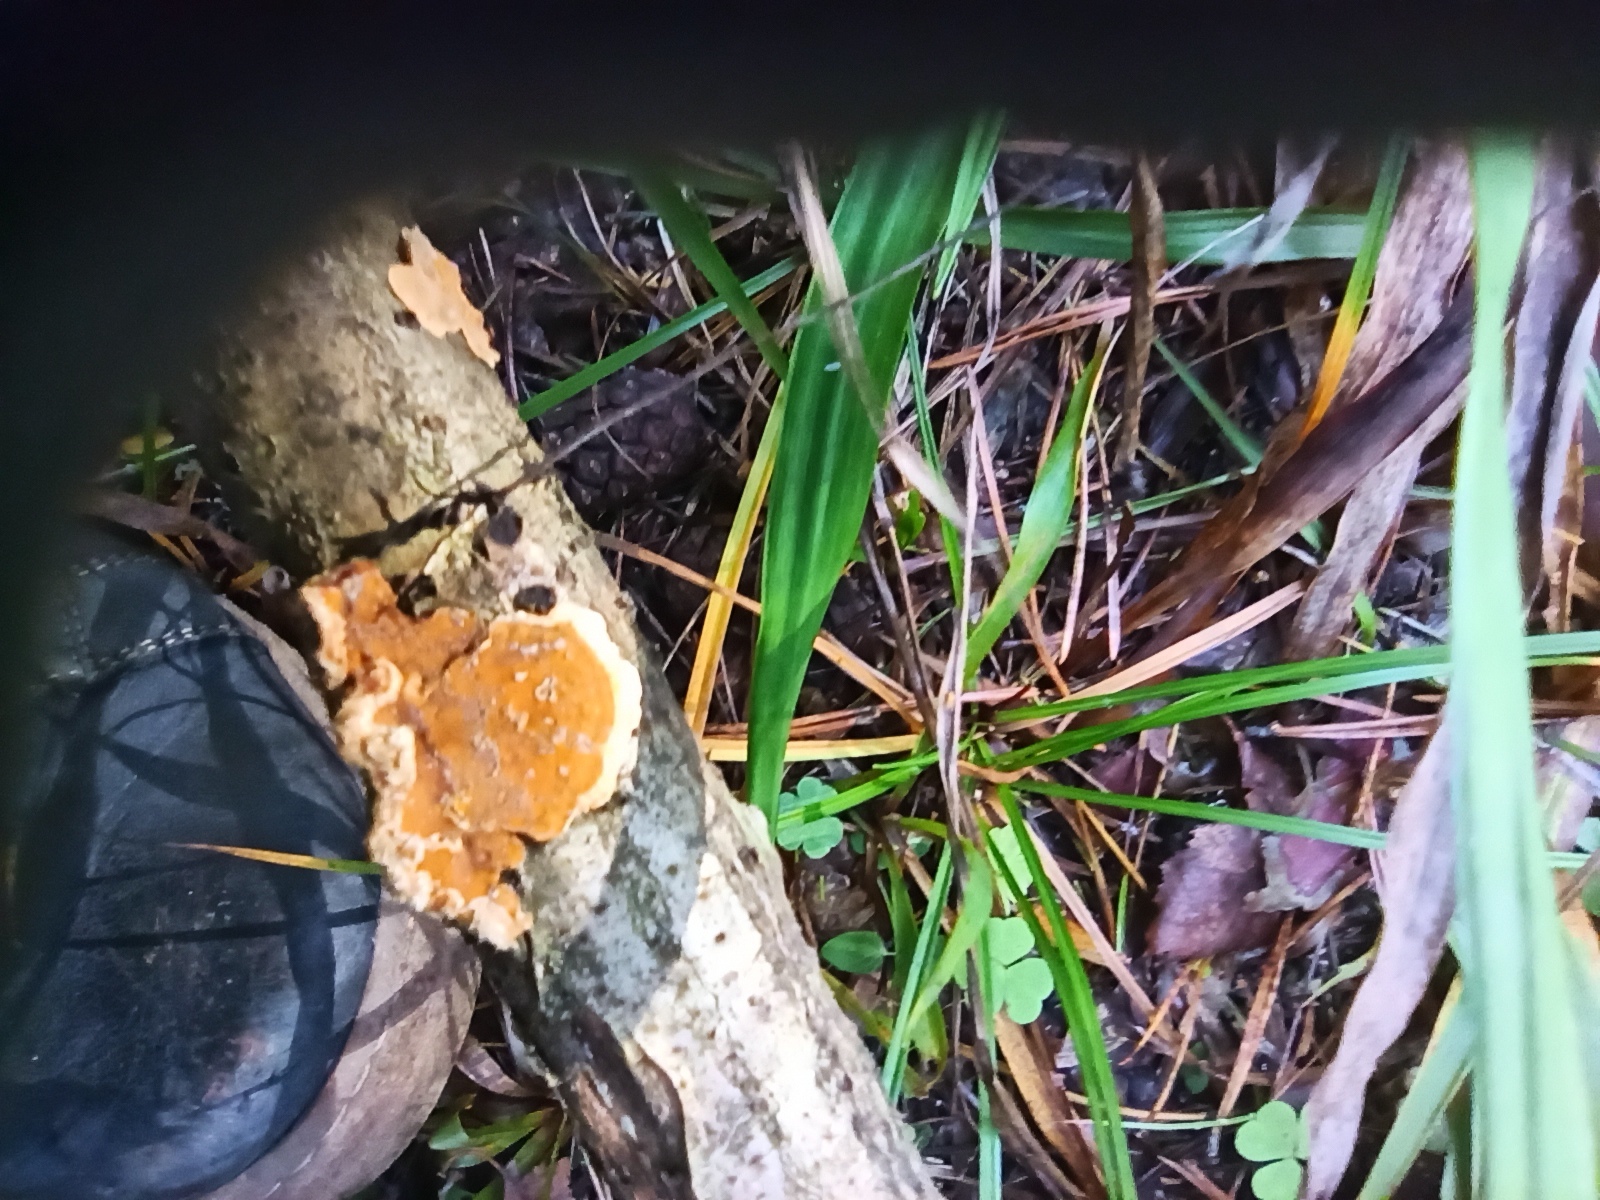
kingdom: Fungi
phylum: Basidiomycota
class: Agaricomycetes
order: Russulales
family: Stereaceae
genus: Stereum
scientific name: Stereum hirsutum
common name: Hairy curtain crust
